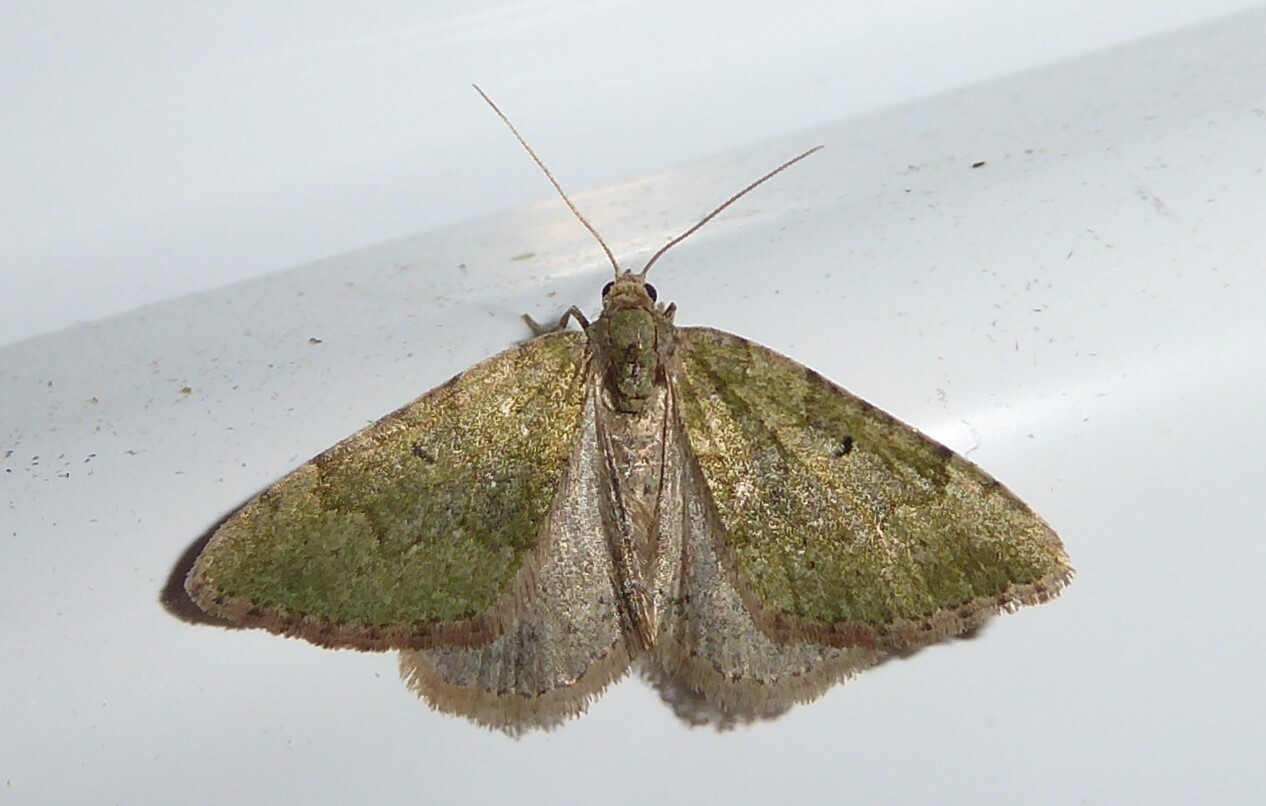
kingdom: Animalia
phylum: Arthropoda
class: Insecta
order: Lepidoptera
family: Geometridae
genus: Epyaxa
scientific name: Epyaxa rosearia
